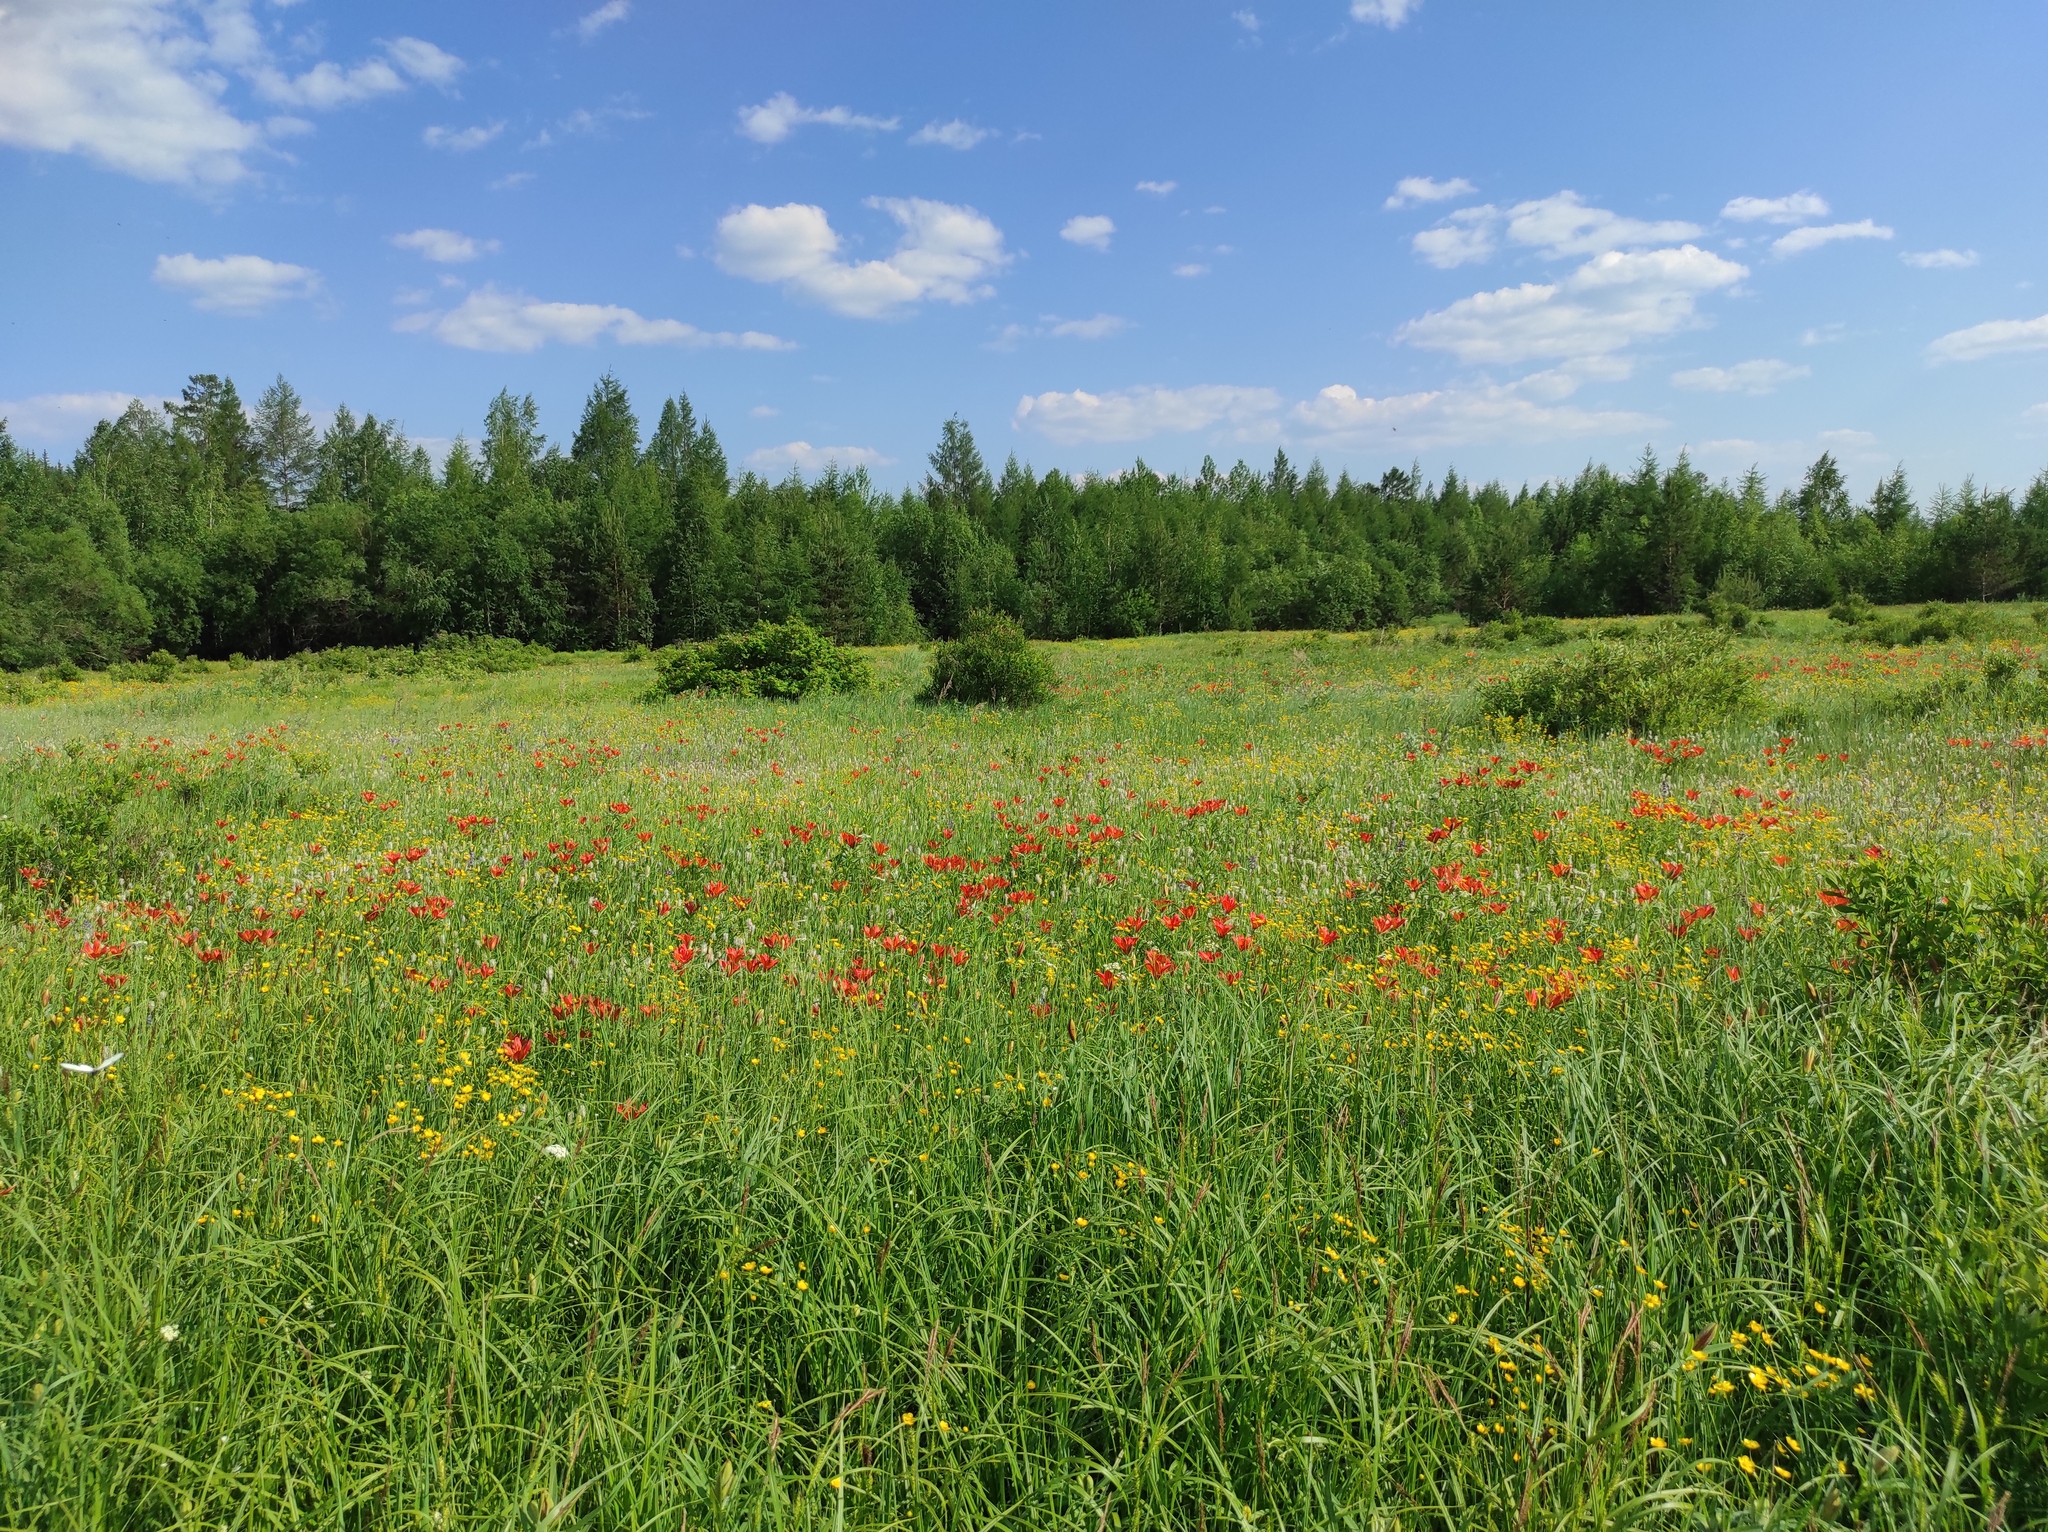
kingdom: Plantae
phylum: Tracheophyta
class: Liliopsida
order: Liliales
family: Liliaceae
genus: Lilium
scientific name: Lilium pensylvanicum
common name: Candlestick lily
